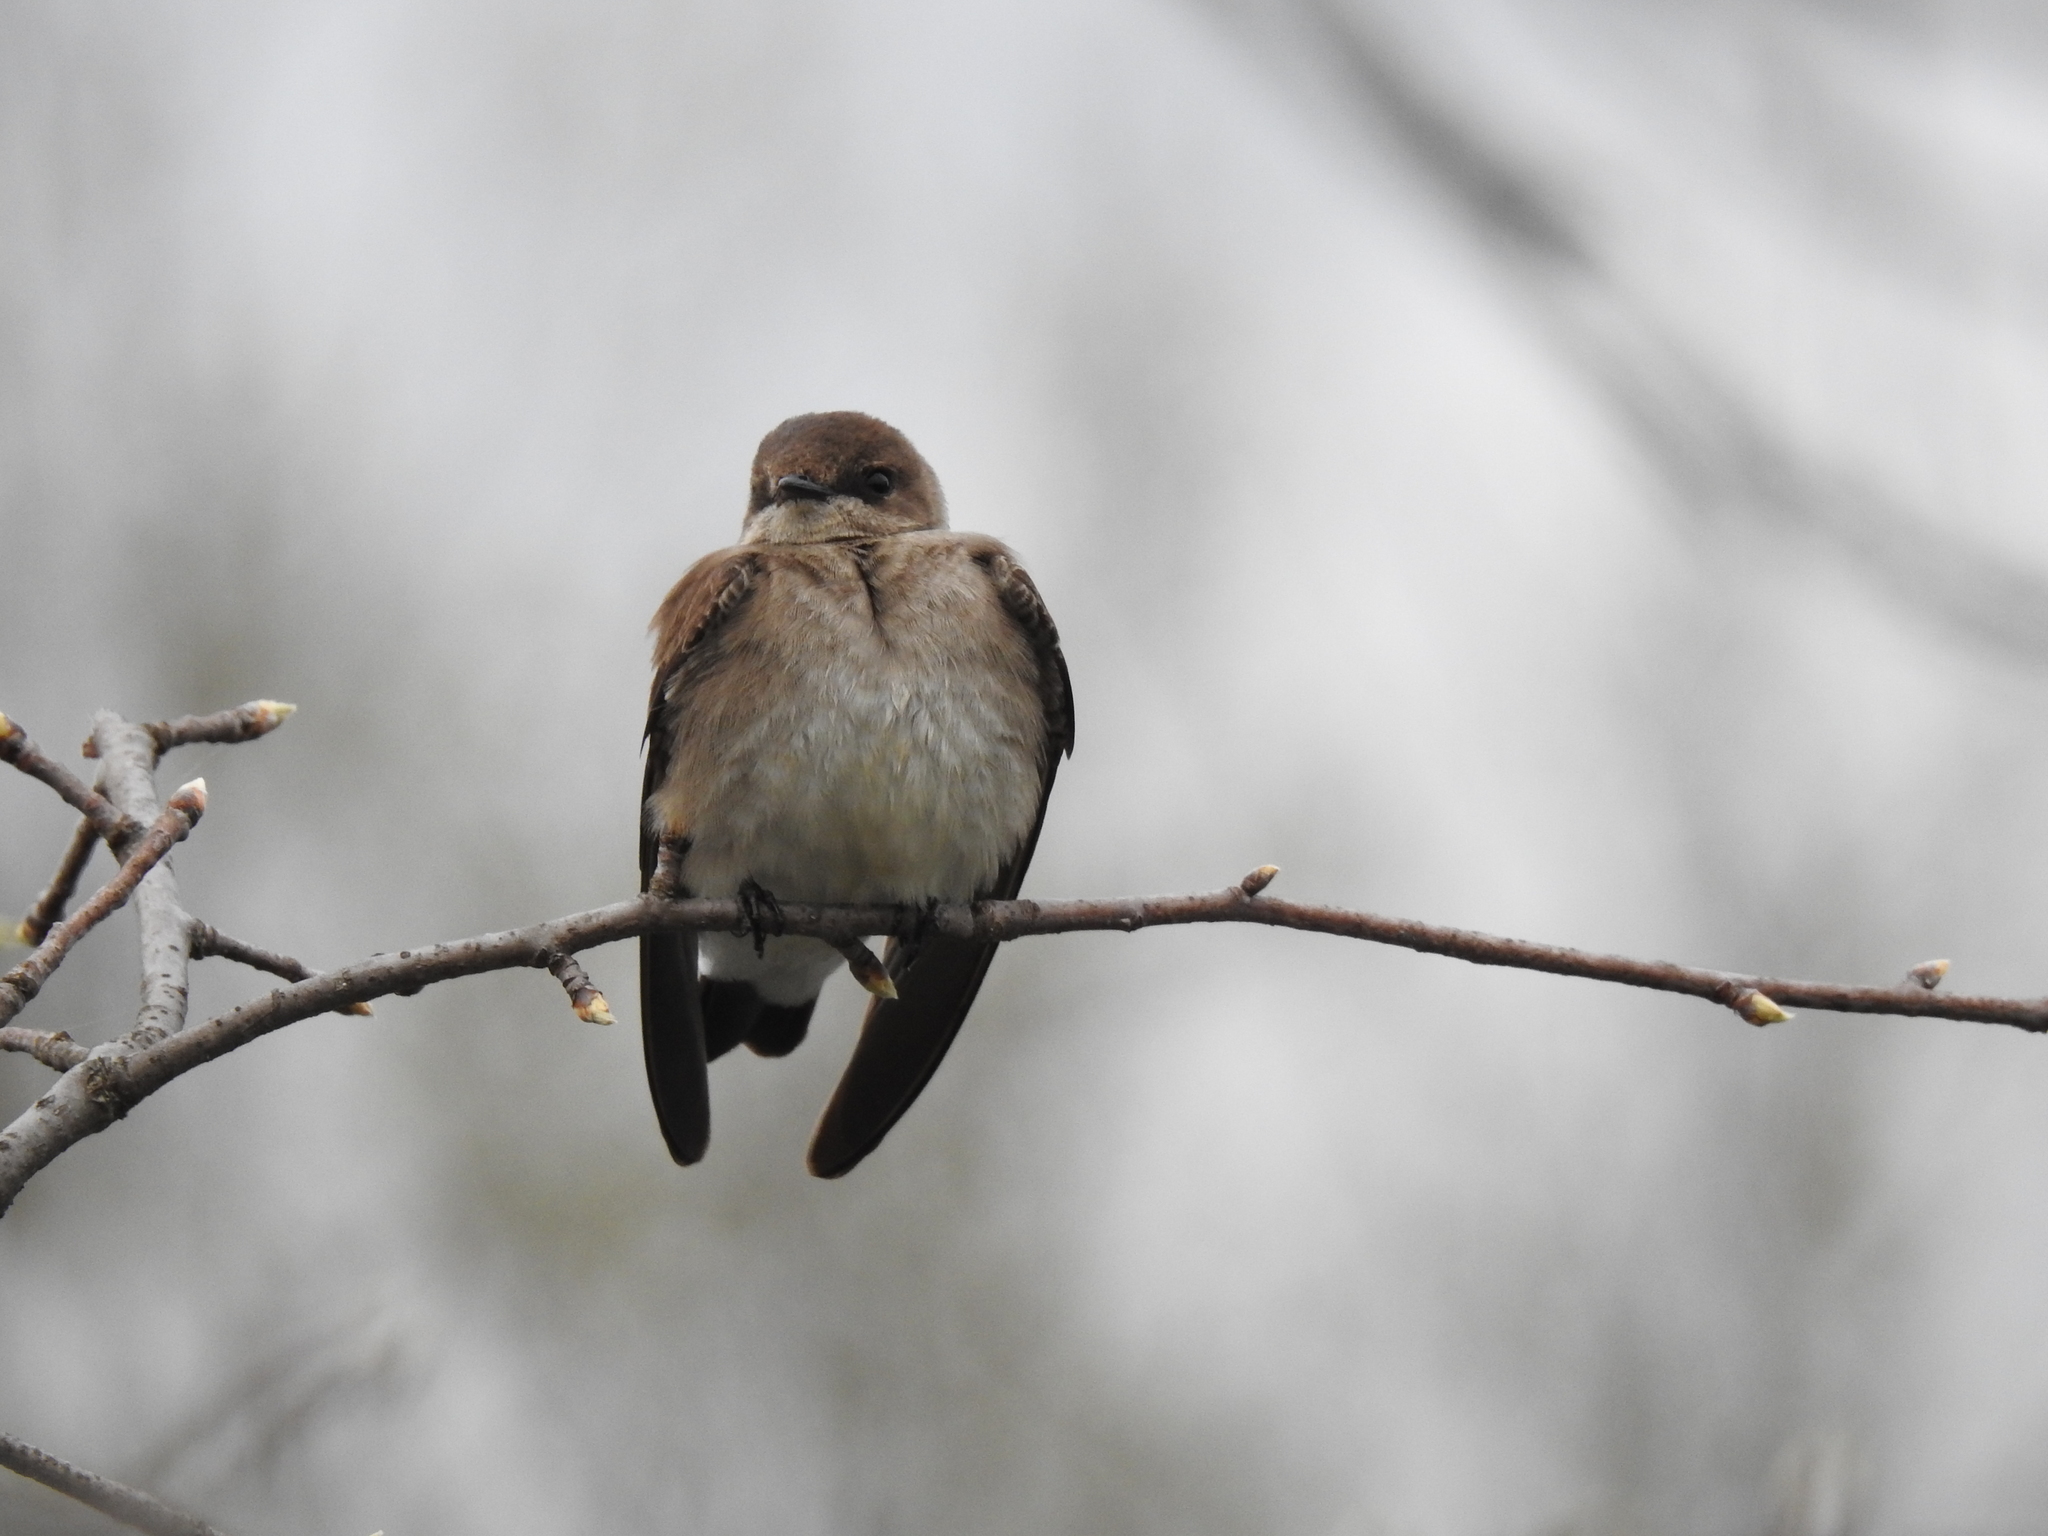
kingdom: Animalia
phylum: Chordata
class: Aves
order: Passeriformes
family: Hirundinidae
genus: Stelgidopteryx
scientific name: Stelgidopteryx serripennis
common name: Northern rough-winged swallow
